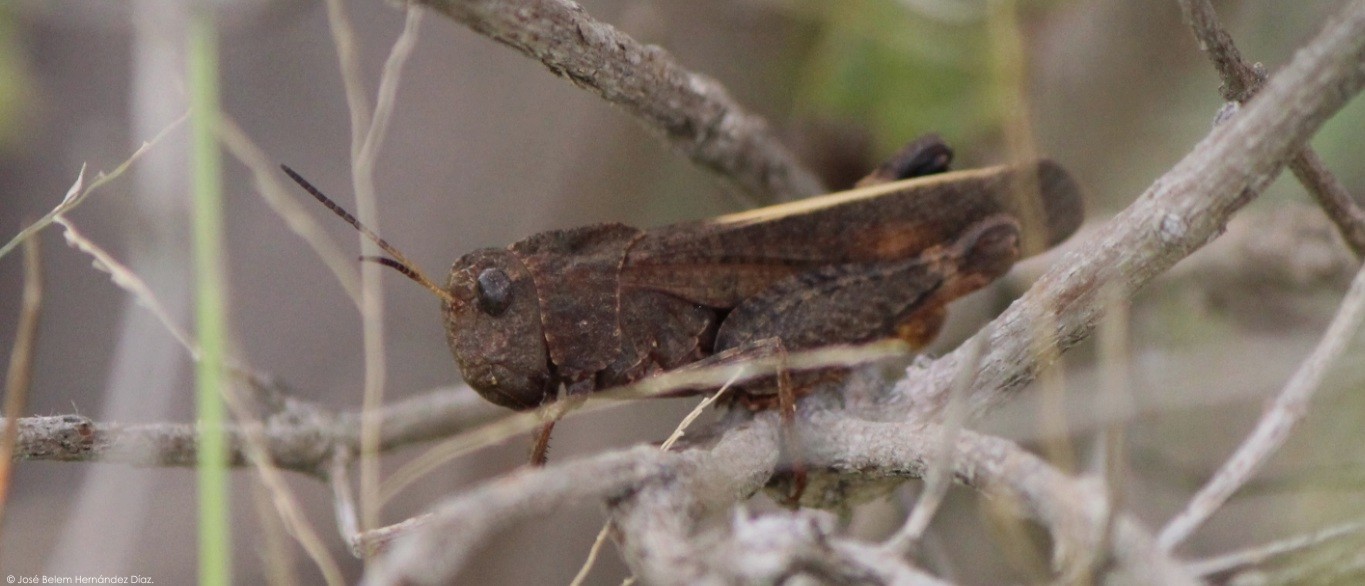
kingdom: Animalia
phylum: Arthropoda
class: Insecta
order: Orthoptera
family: Acrididae
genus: Arphia
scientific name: Arphia nietana
